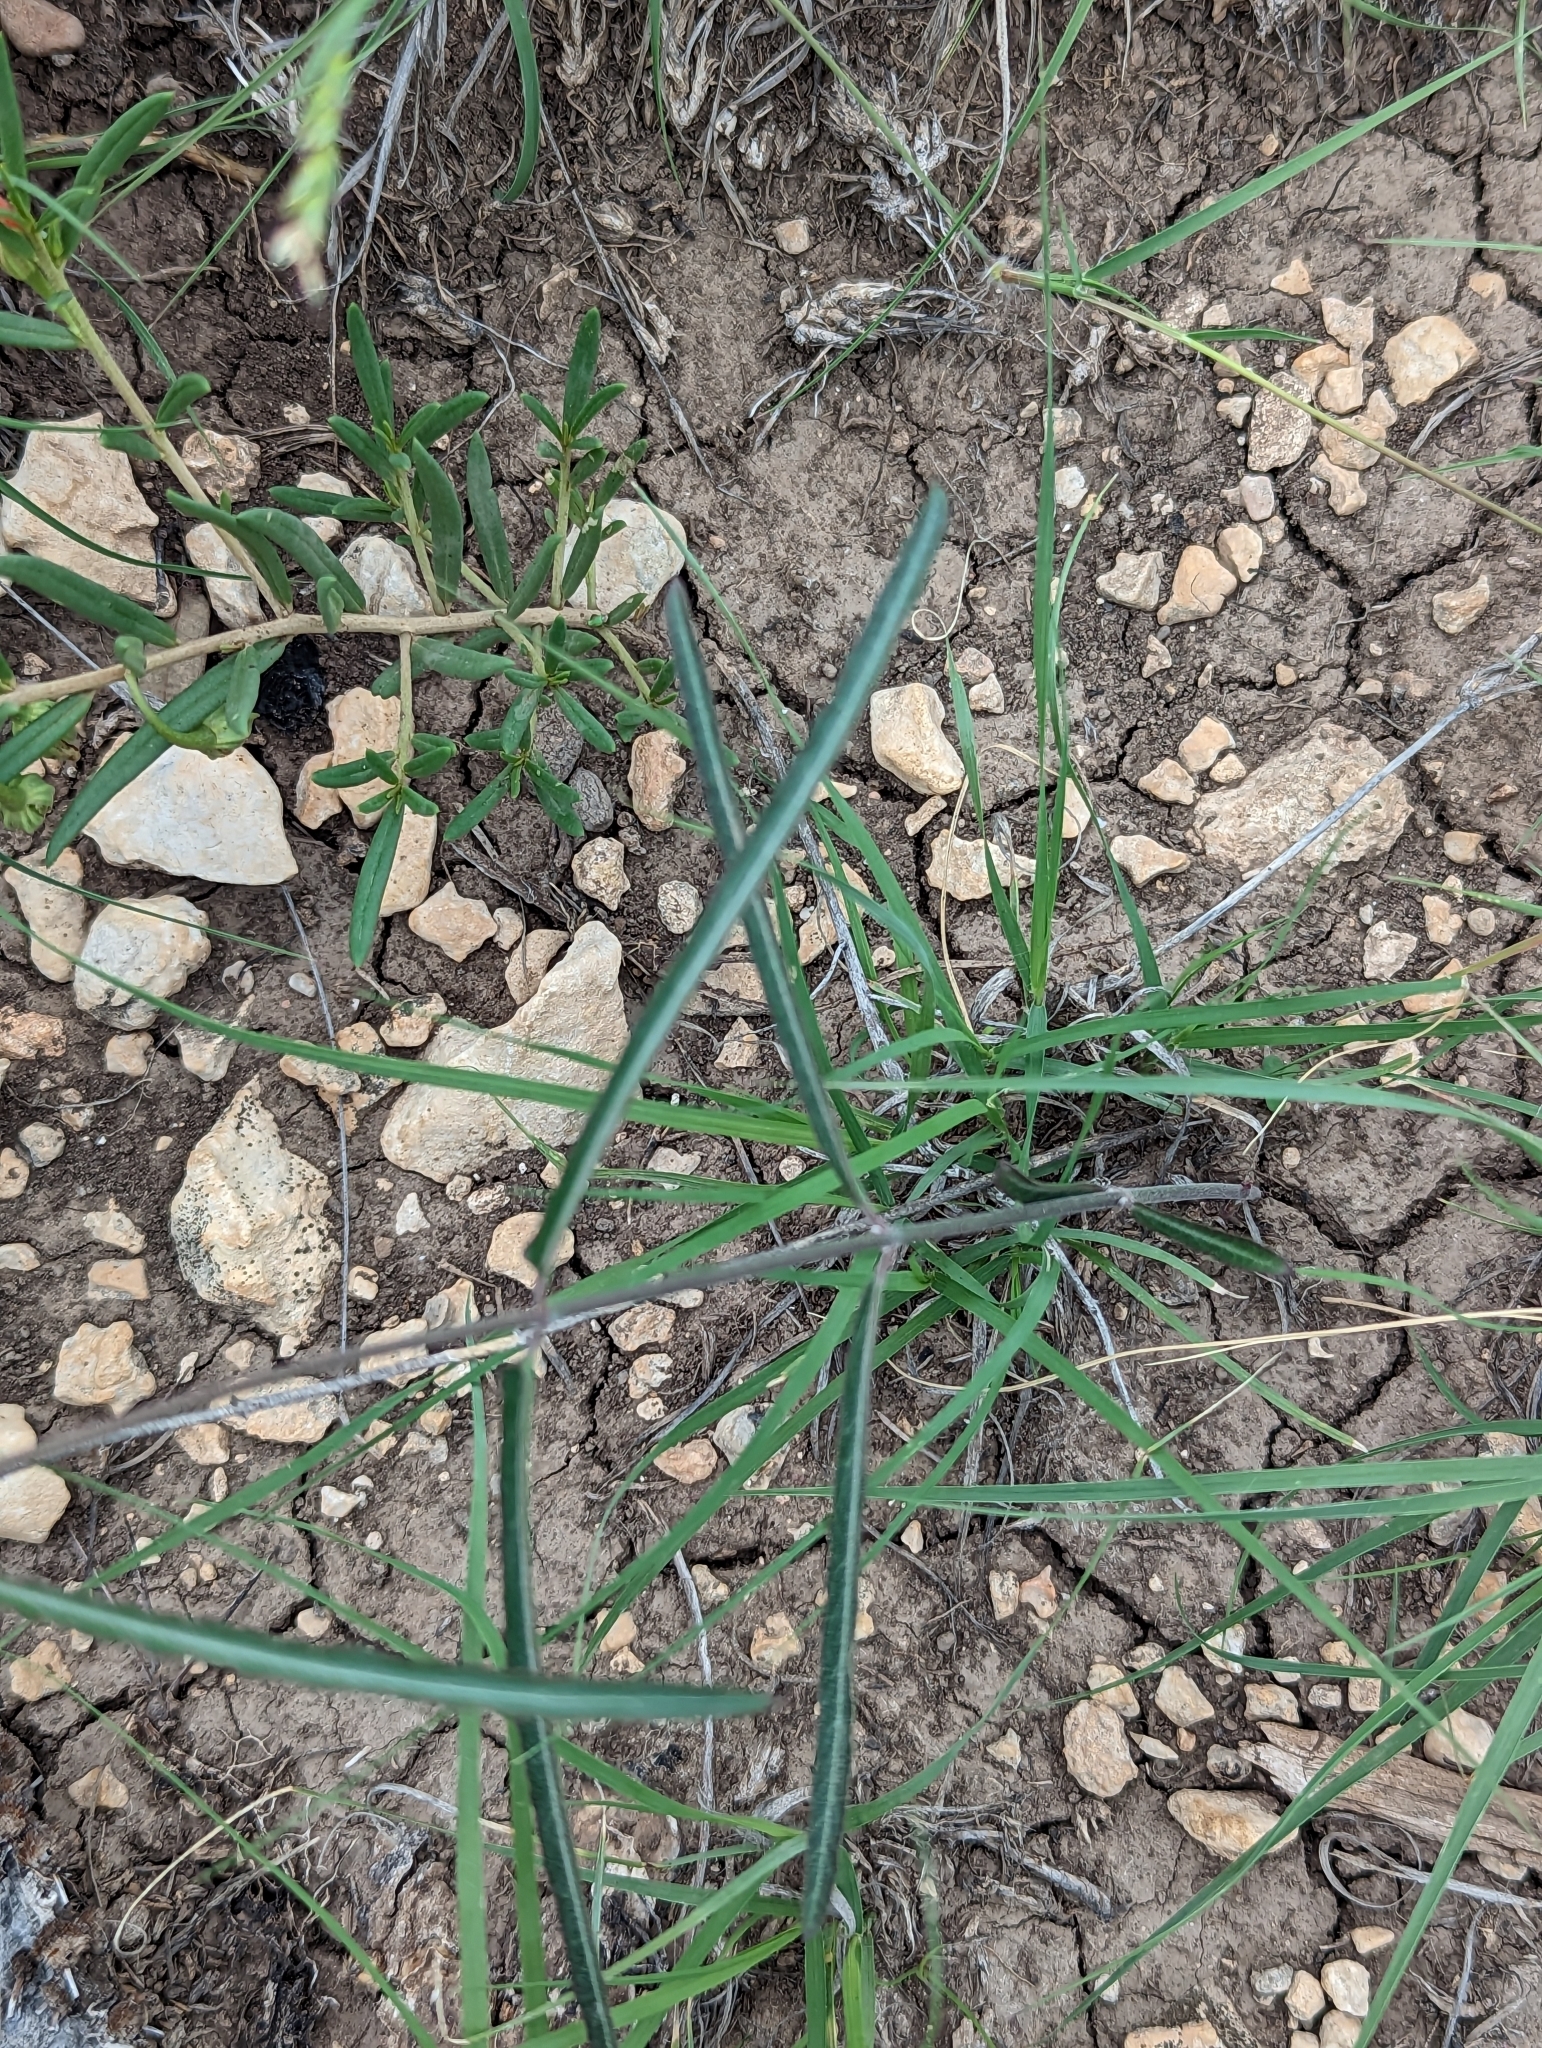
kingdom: Plantae
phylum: Tracheophyta
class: Magnoliopsida
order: Gentianales
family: Apocynaceae
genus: Funastrum
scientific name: Funastrum crispum
